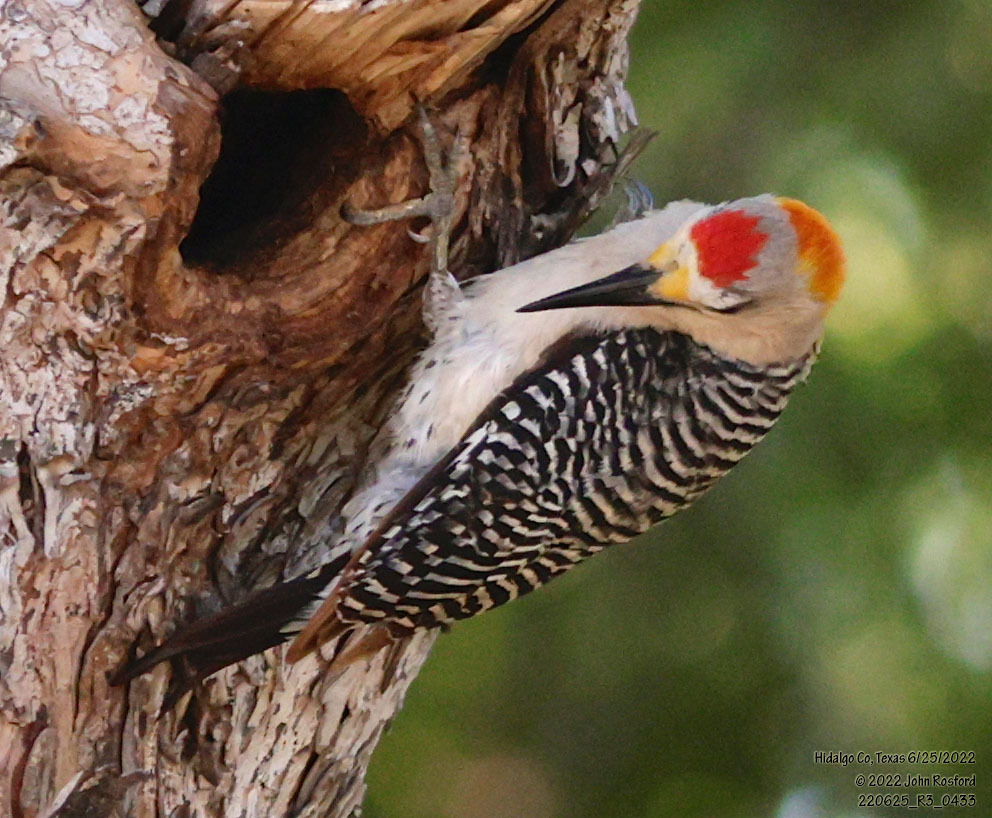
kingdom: Animalia
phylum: Chordata
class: Aves
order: Piciformes
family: Picidae
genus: Melanerpes
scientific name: Melanerpes aurifrons
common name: Golden-fronted woodpecker
